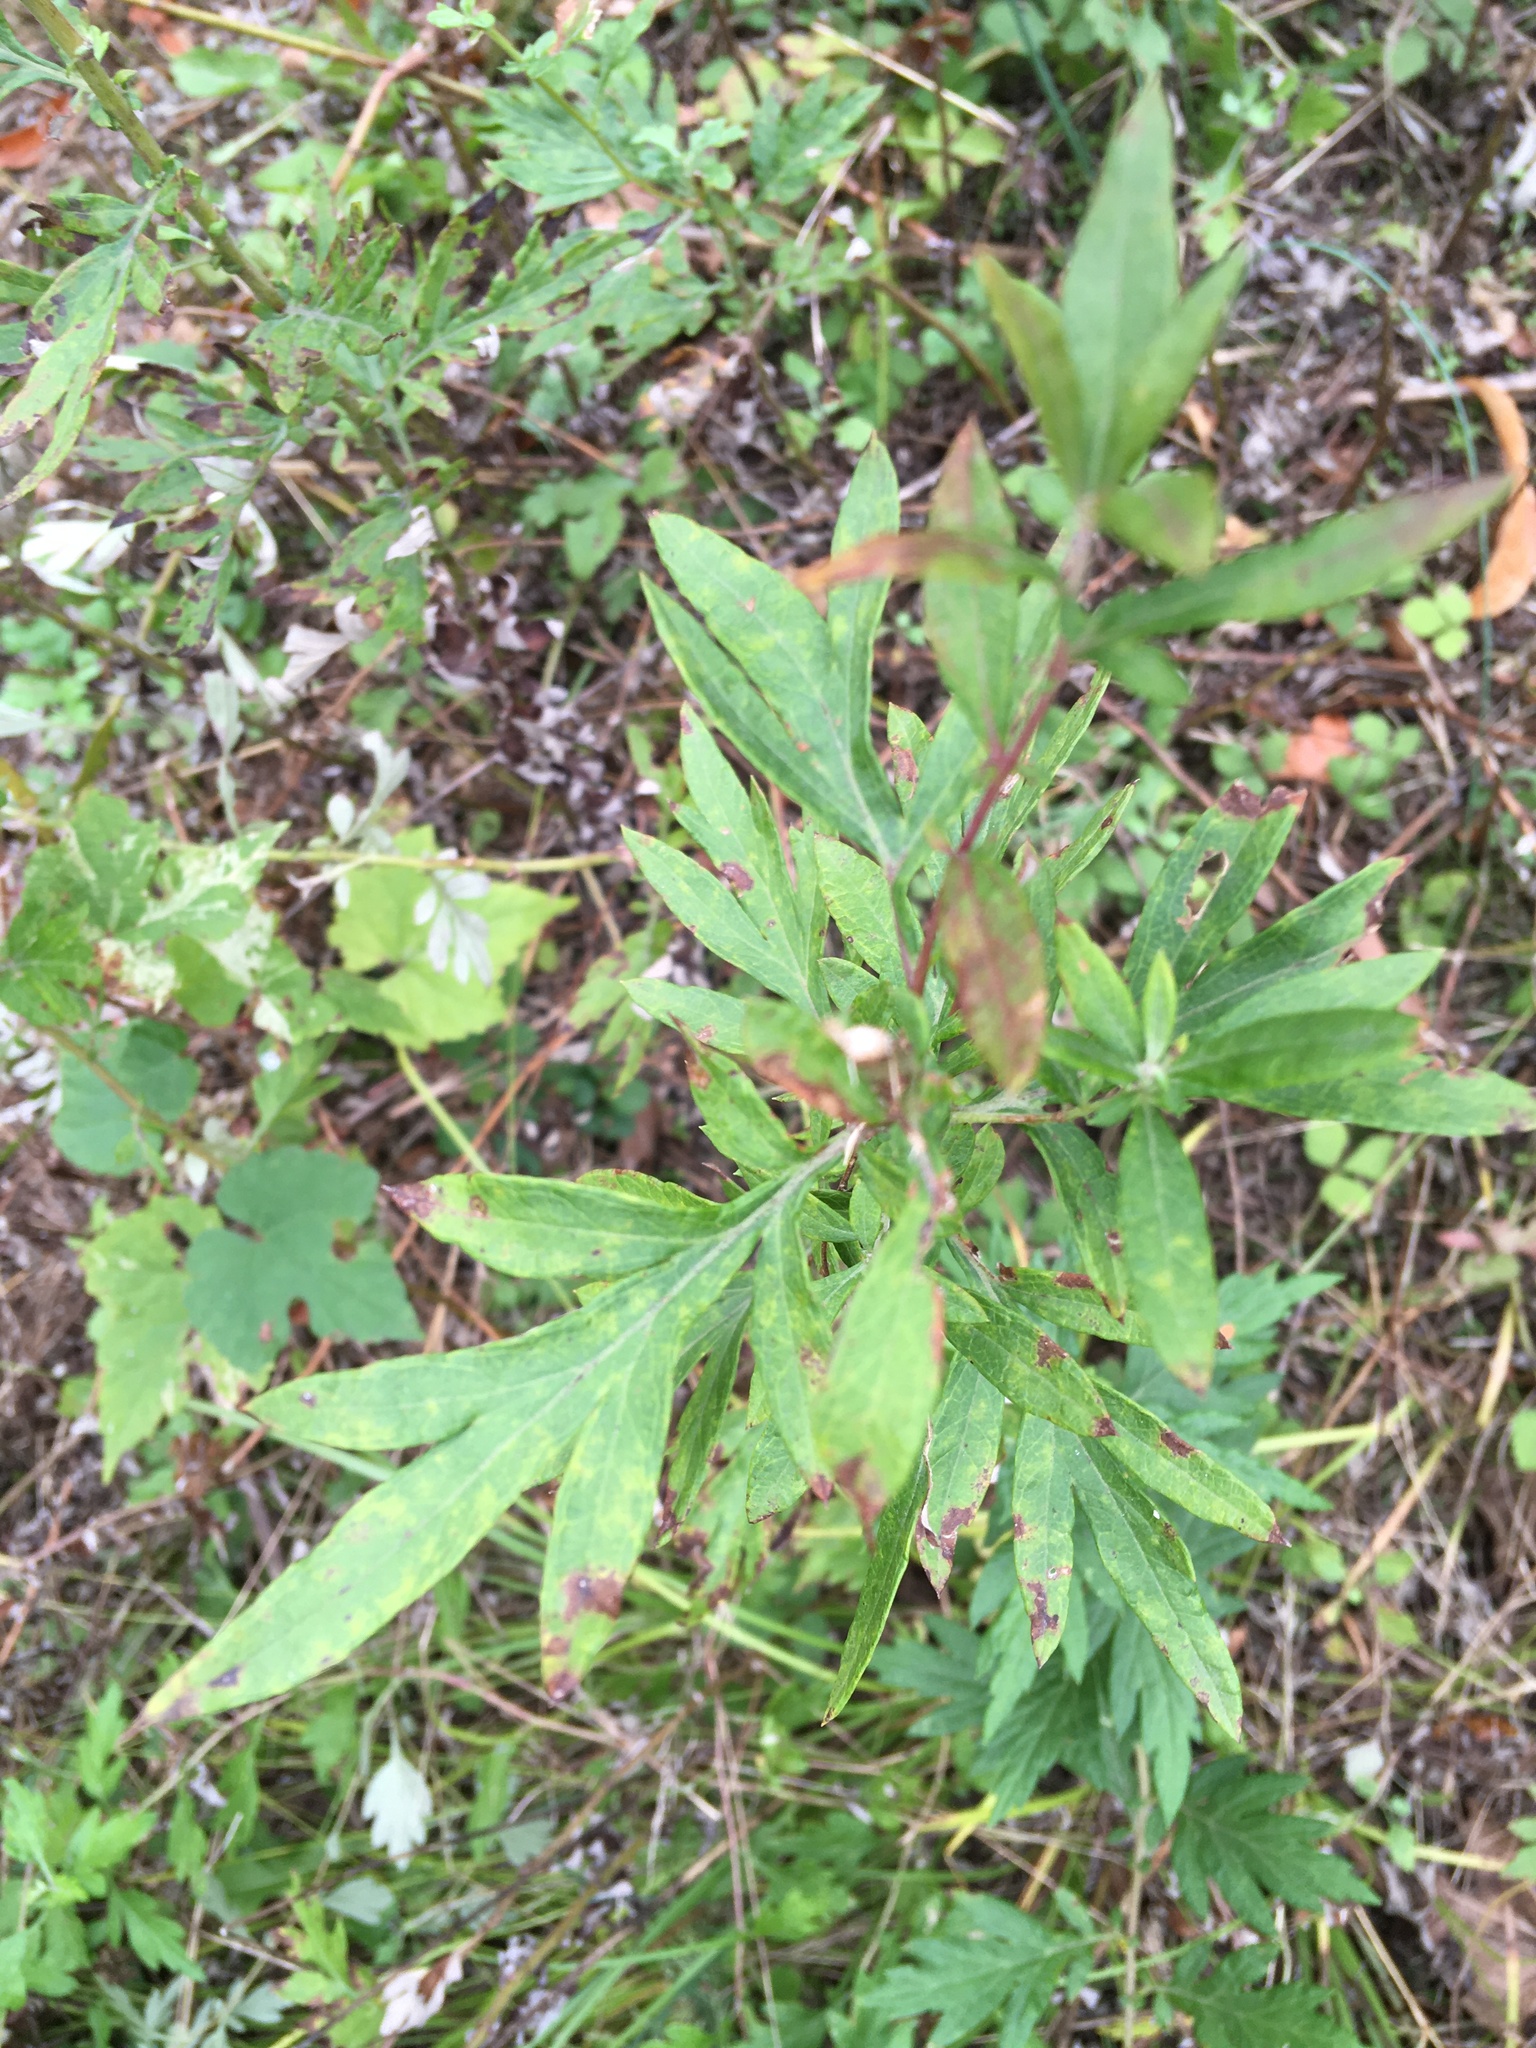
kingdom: Plantae
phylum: Tracheophyta
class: Magnoliopsida
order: Asterales
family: Asteraceae
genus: Artemisia
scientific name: Artemisia vulgaris
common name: Mugwort
